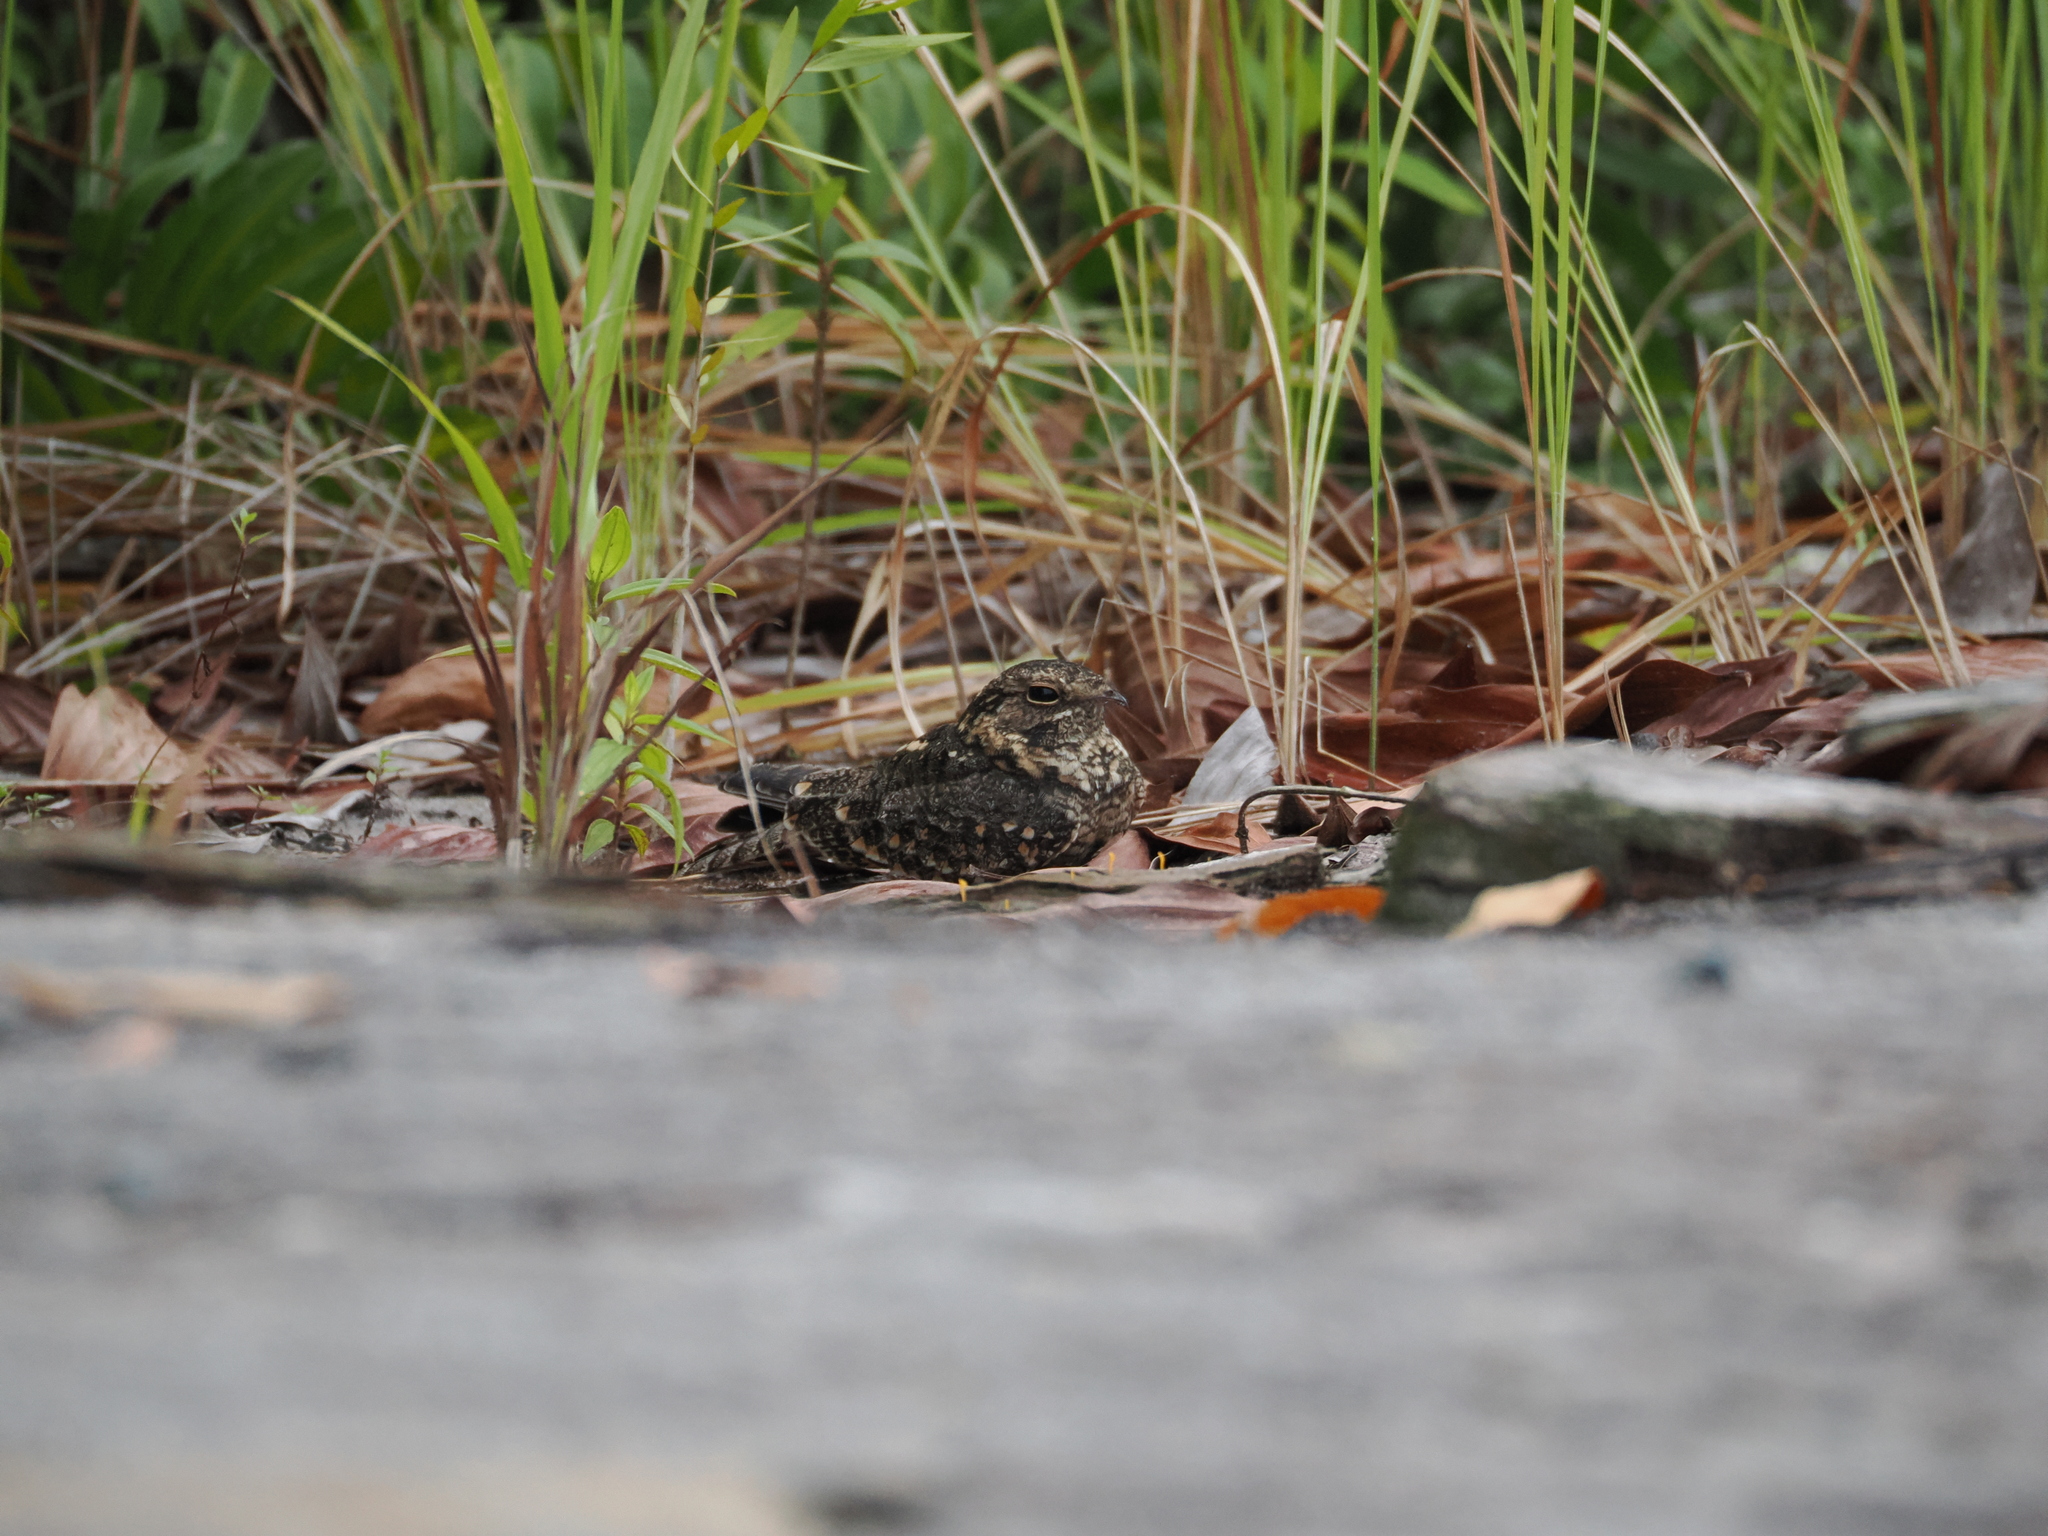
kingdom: Animalia
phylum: Chordata
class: Aves
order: Caprimulgiformes
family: Caprimulgidae
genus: Caprimulgus
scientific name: Caprimulgus affinis
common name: Savanna nightjar
